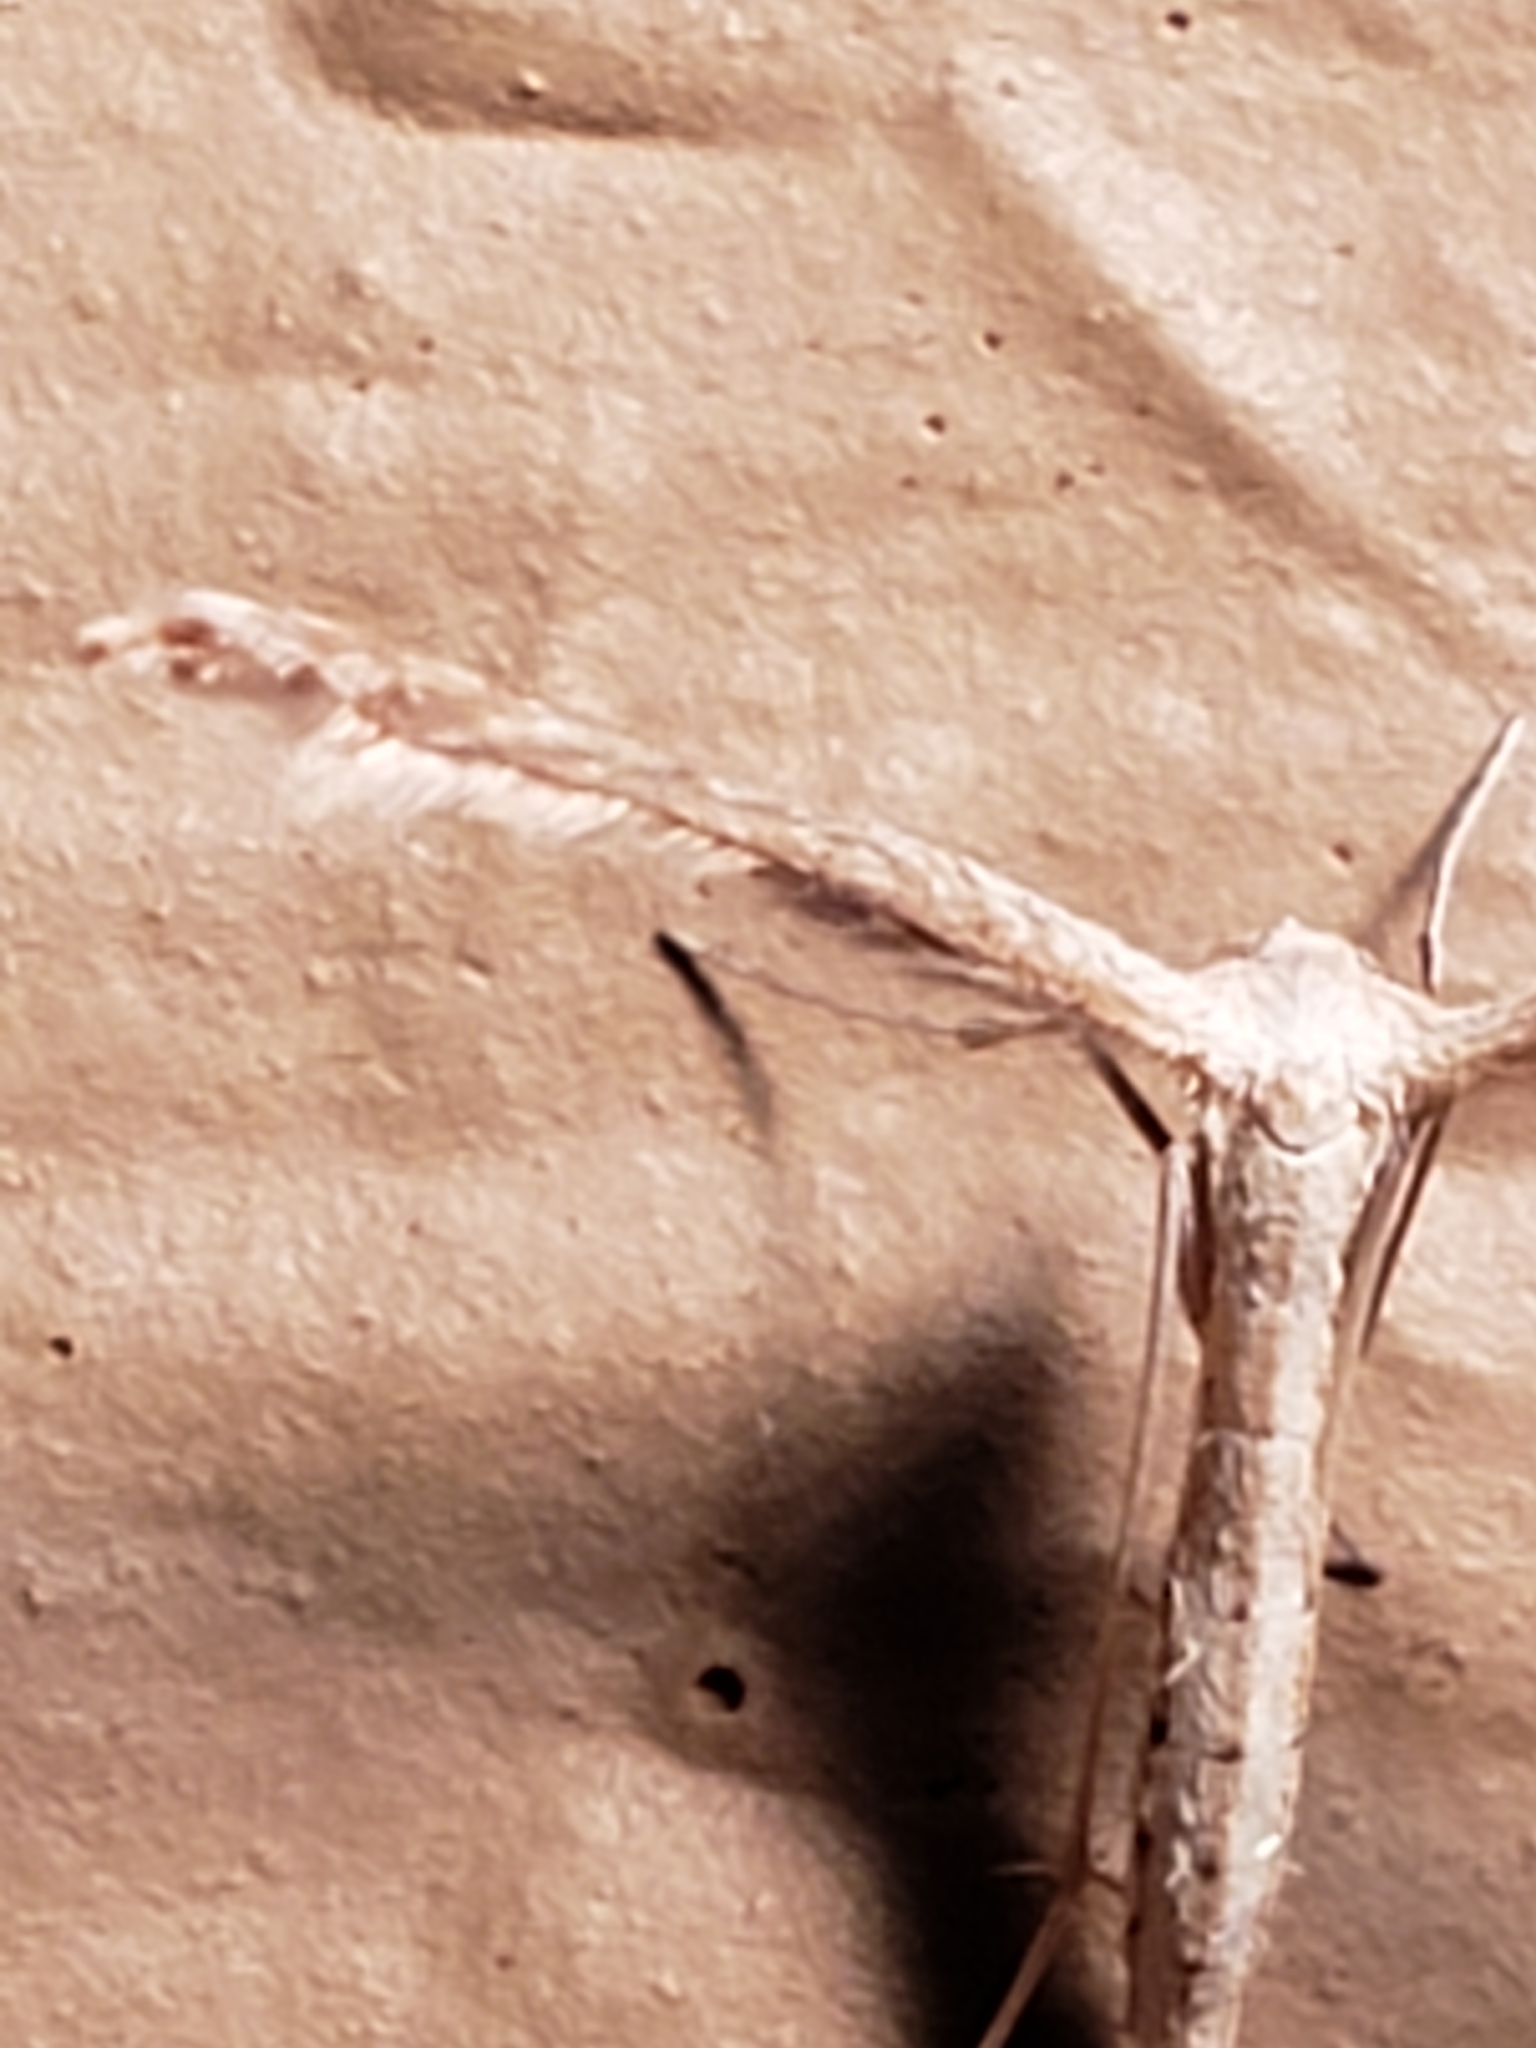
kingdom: Animalia
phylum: Arthropoda
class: Insecta
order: Lepidoptera
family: Pterophoridae
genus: Lioptilodes
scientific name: Lioptilodes albistriolatus
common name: Moth
